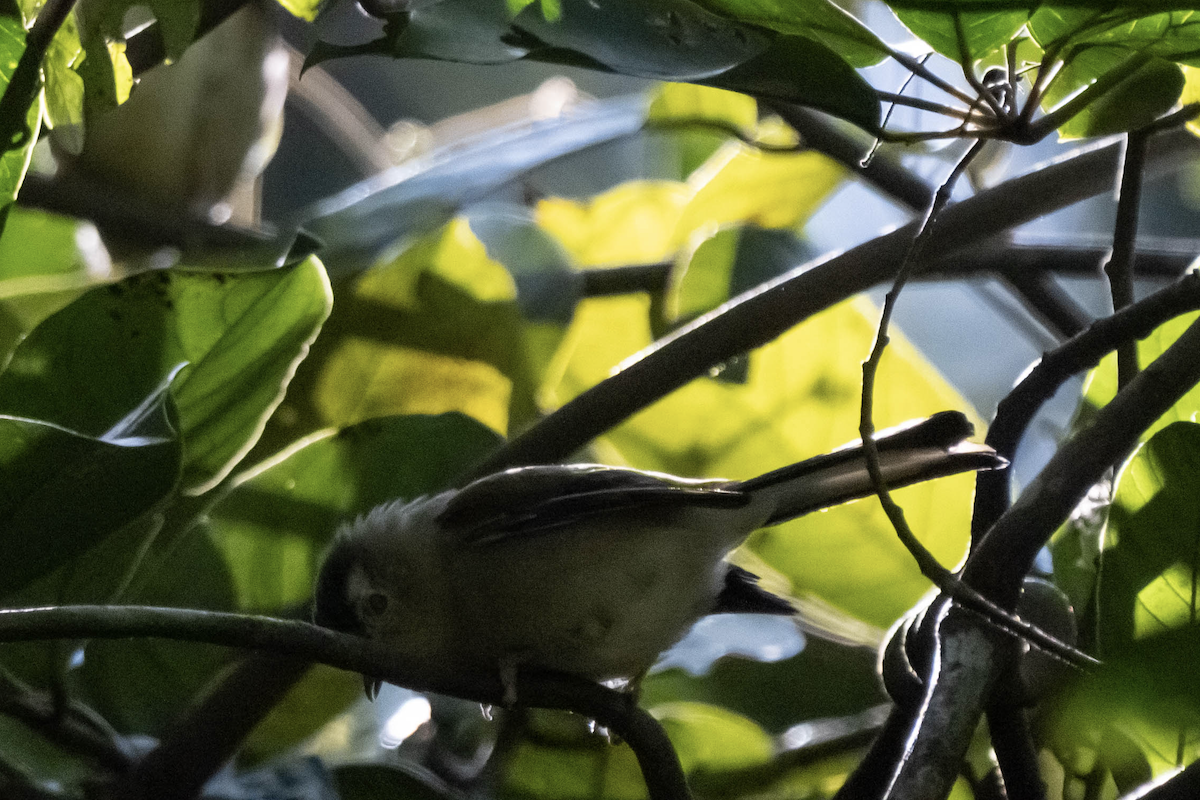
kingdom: Animalia
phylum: Chordata
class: Aves
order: Passeriformes
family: Leiothrichidae
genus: Minla
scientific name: Minla cyanouroptera
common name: Blue-winged minla
